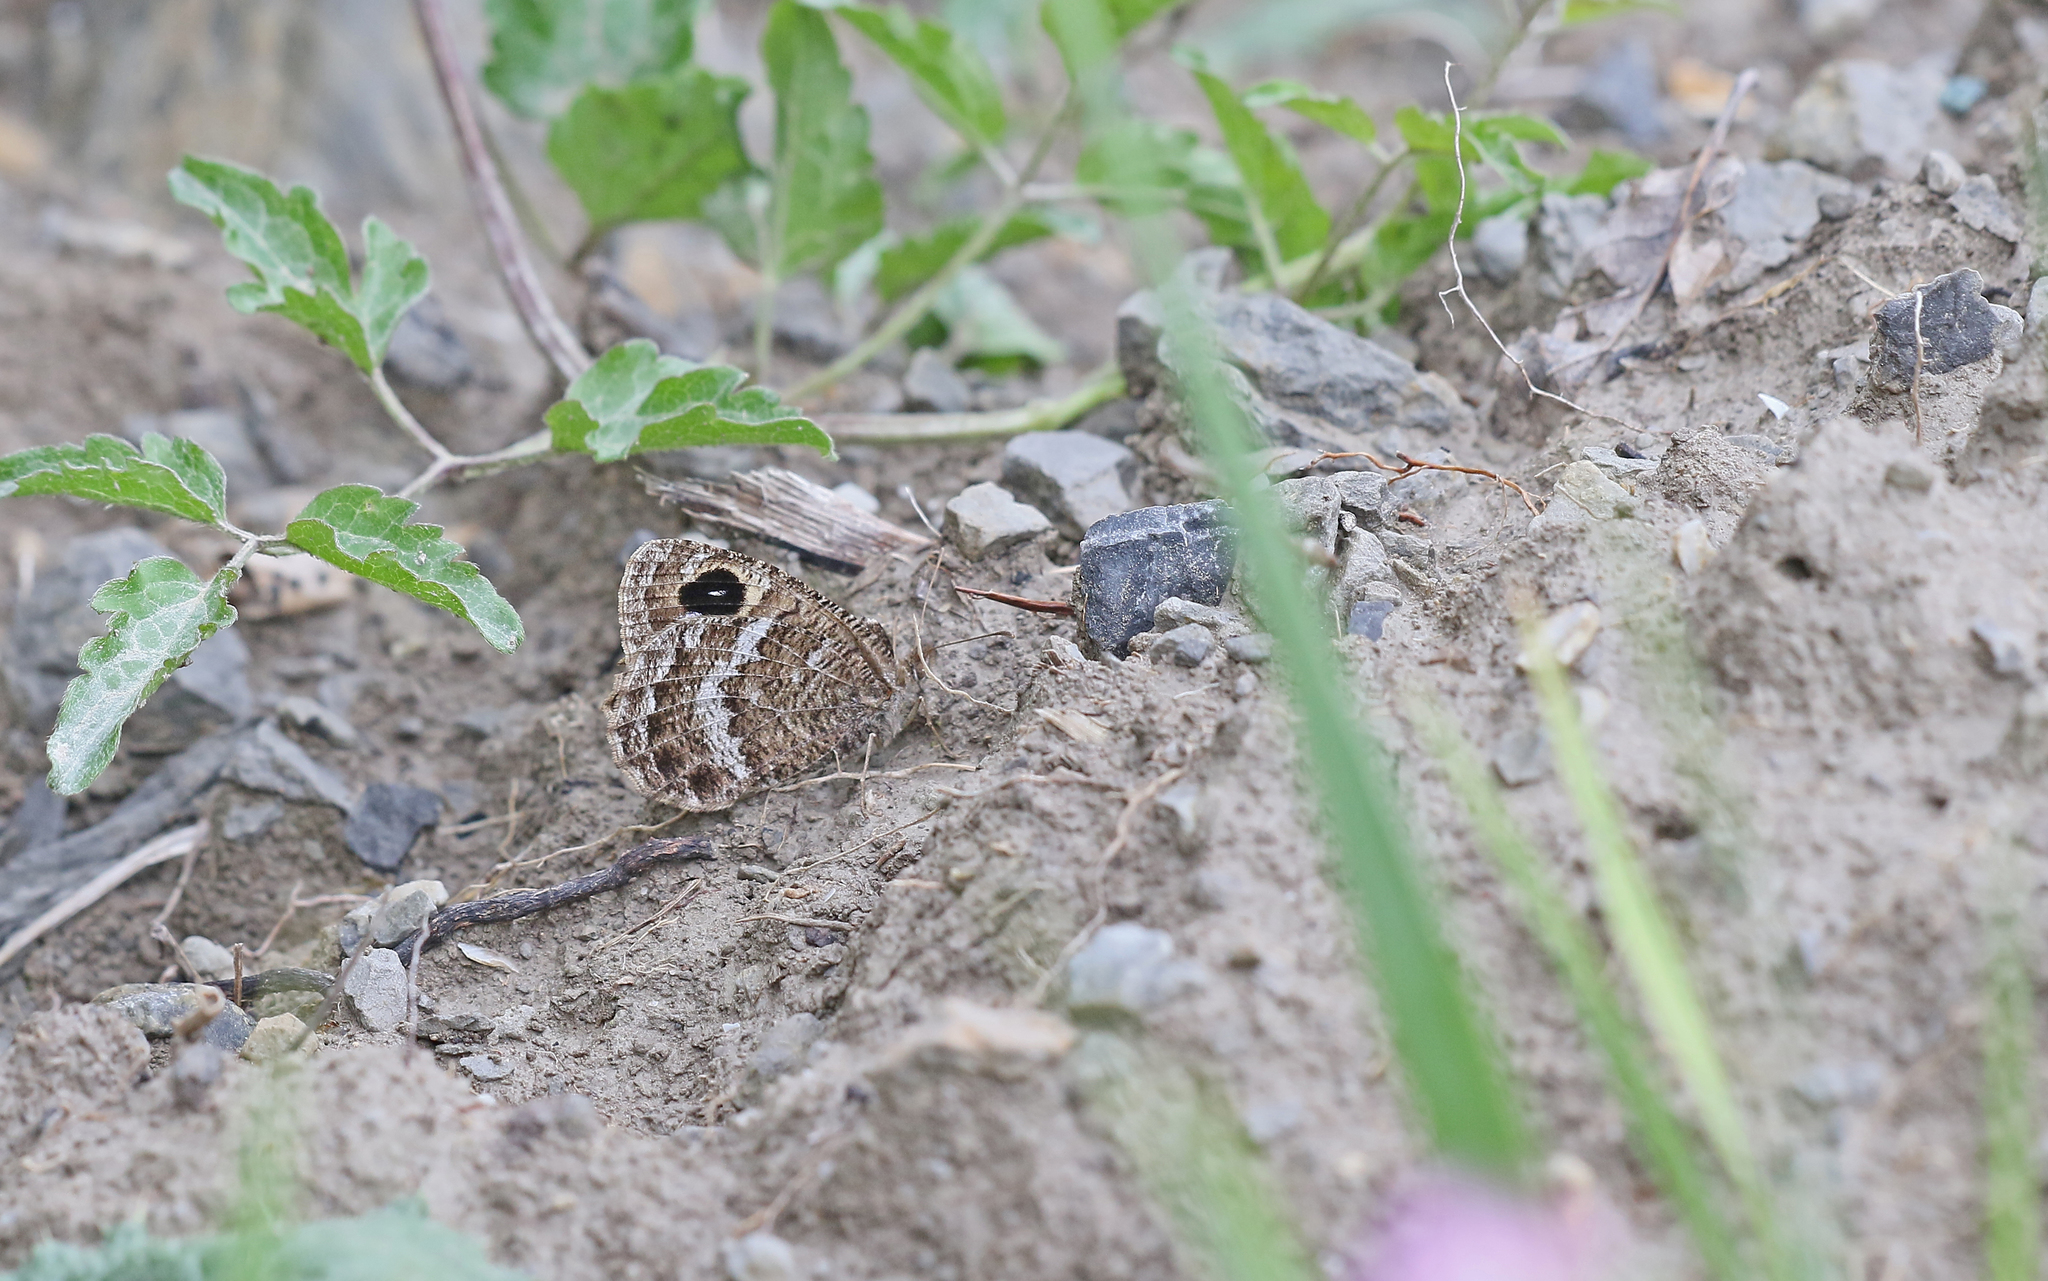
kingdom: Animalia
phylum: Arthropoda
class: Insecta
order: Lepidoptera
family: Nymphalidae
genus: Satyrus
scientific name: Satyrus actaea
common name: Black satyr
